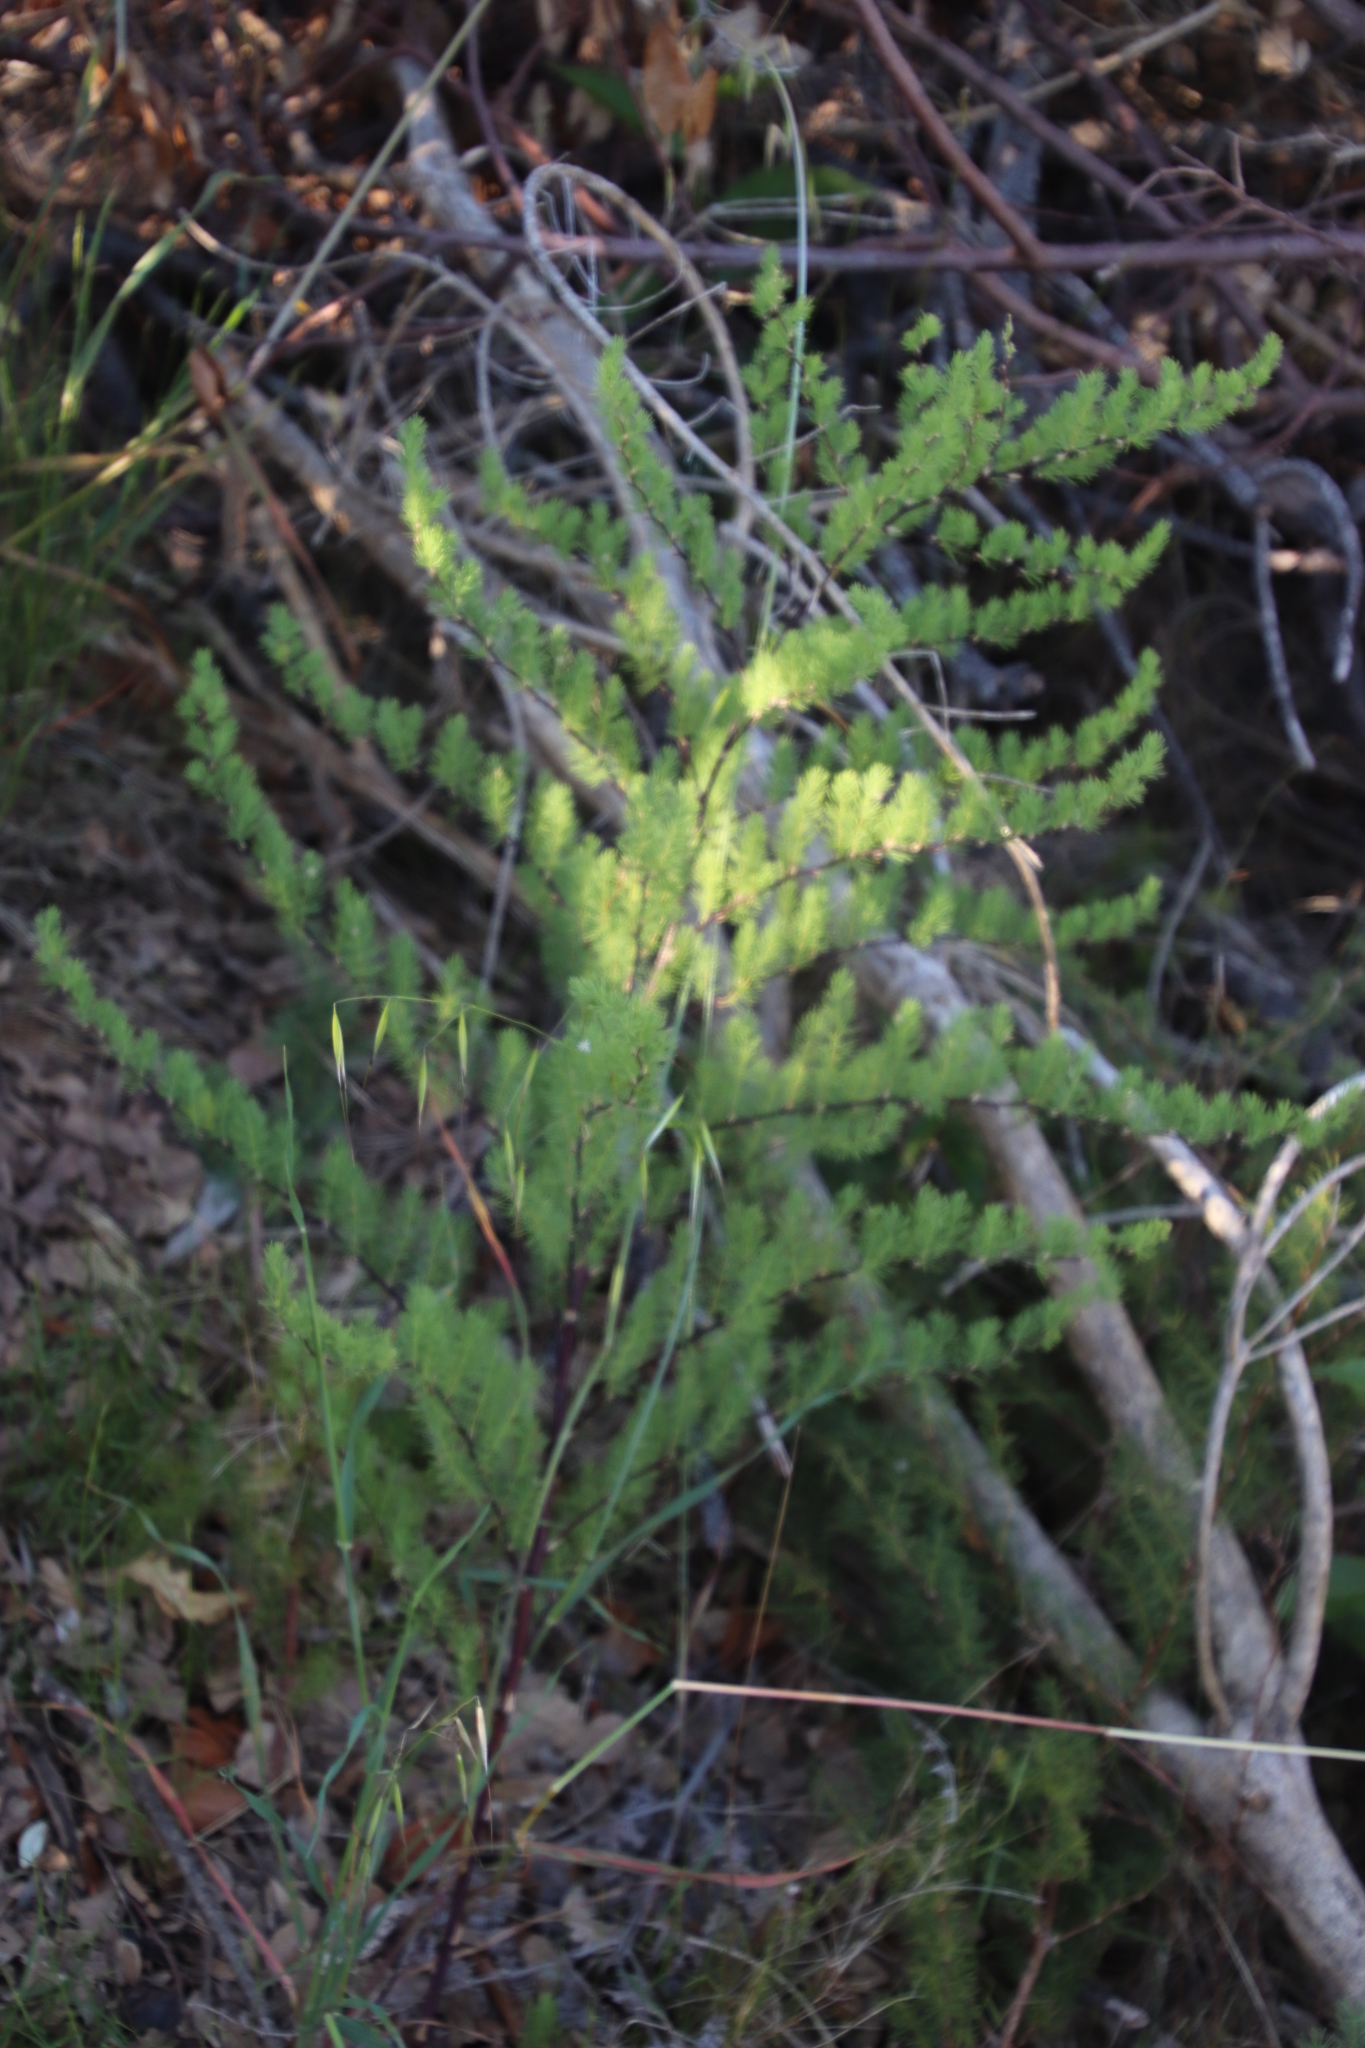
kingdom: Plantae
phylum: Tracheophyta
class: Liliopsida
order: Asparagales
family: Asparagaceae
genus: Asparagus
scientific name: Asparagus rubicundus
